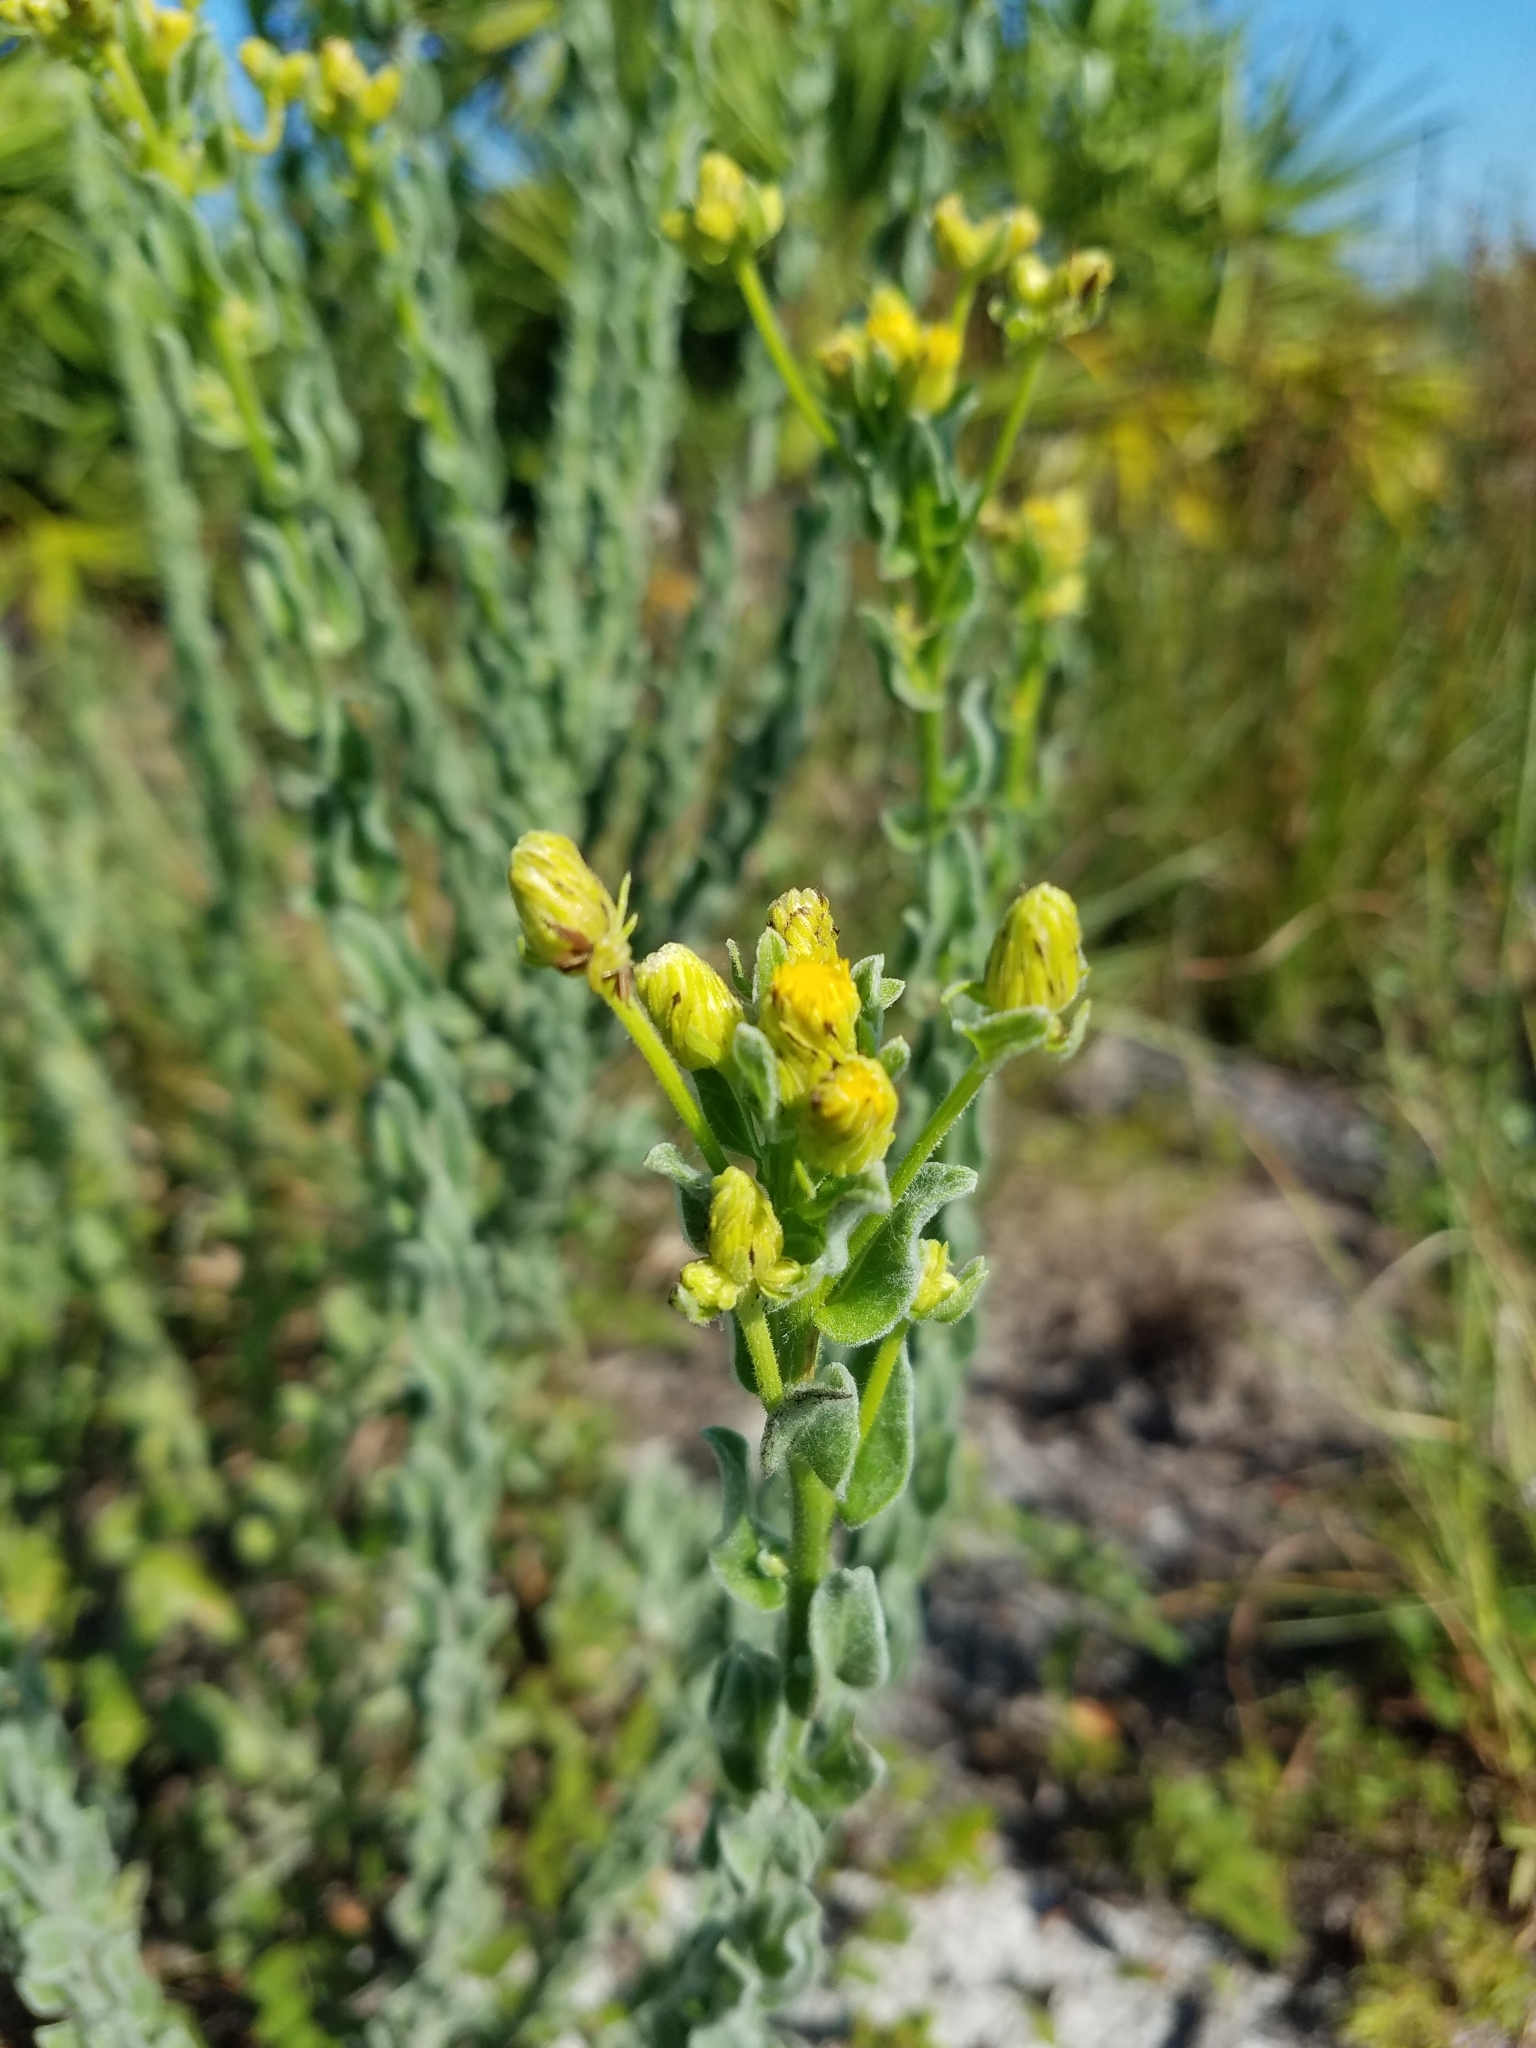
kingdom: Plantae
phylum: Tracheophyta
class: Magnoliopsida
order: Asterales
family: Asteraceae
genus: Chrysopsis
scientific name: Chrysopsis floridana
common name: Florida golden-aster
